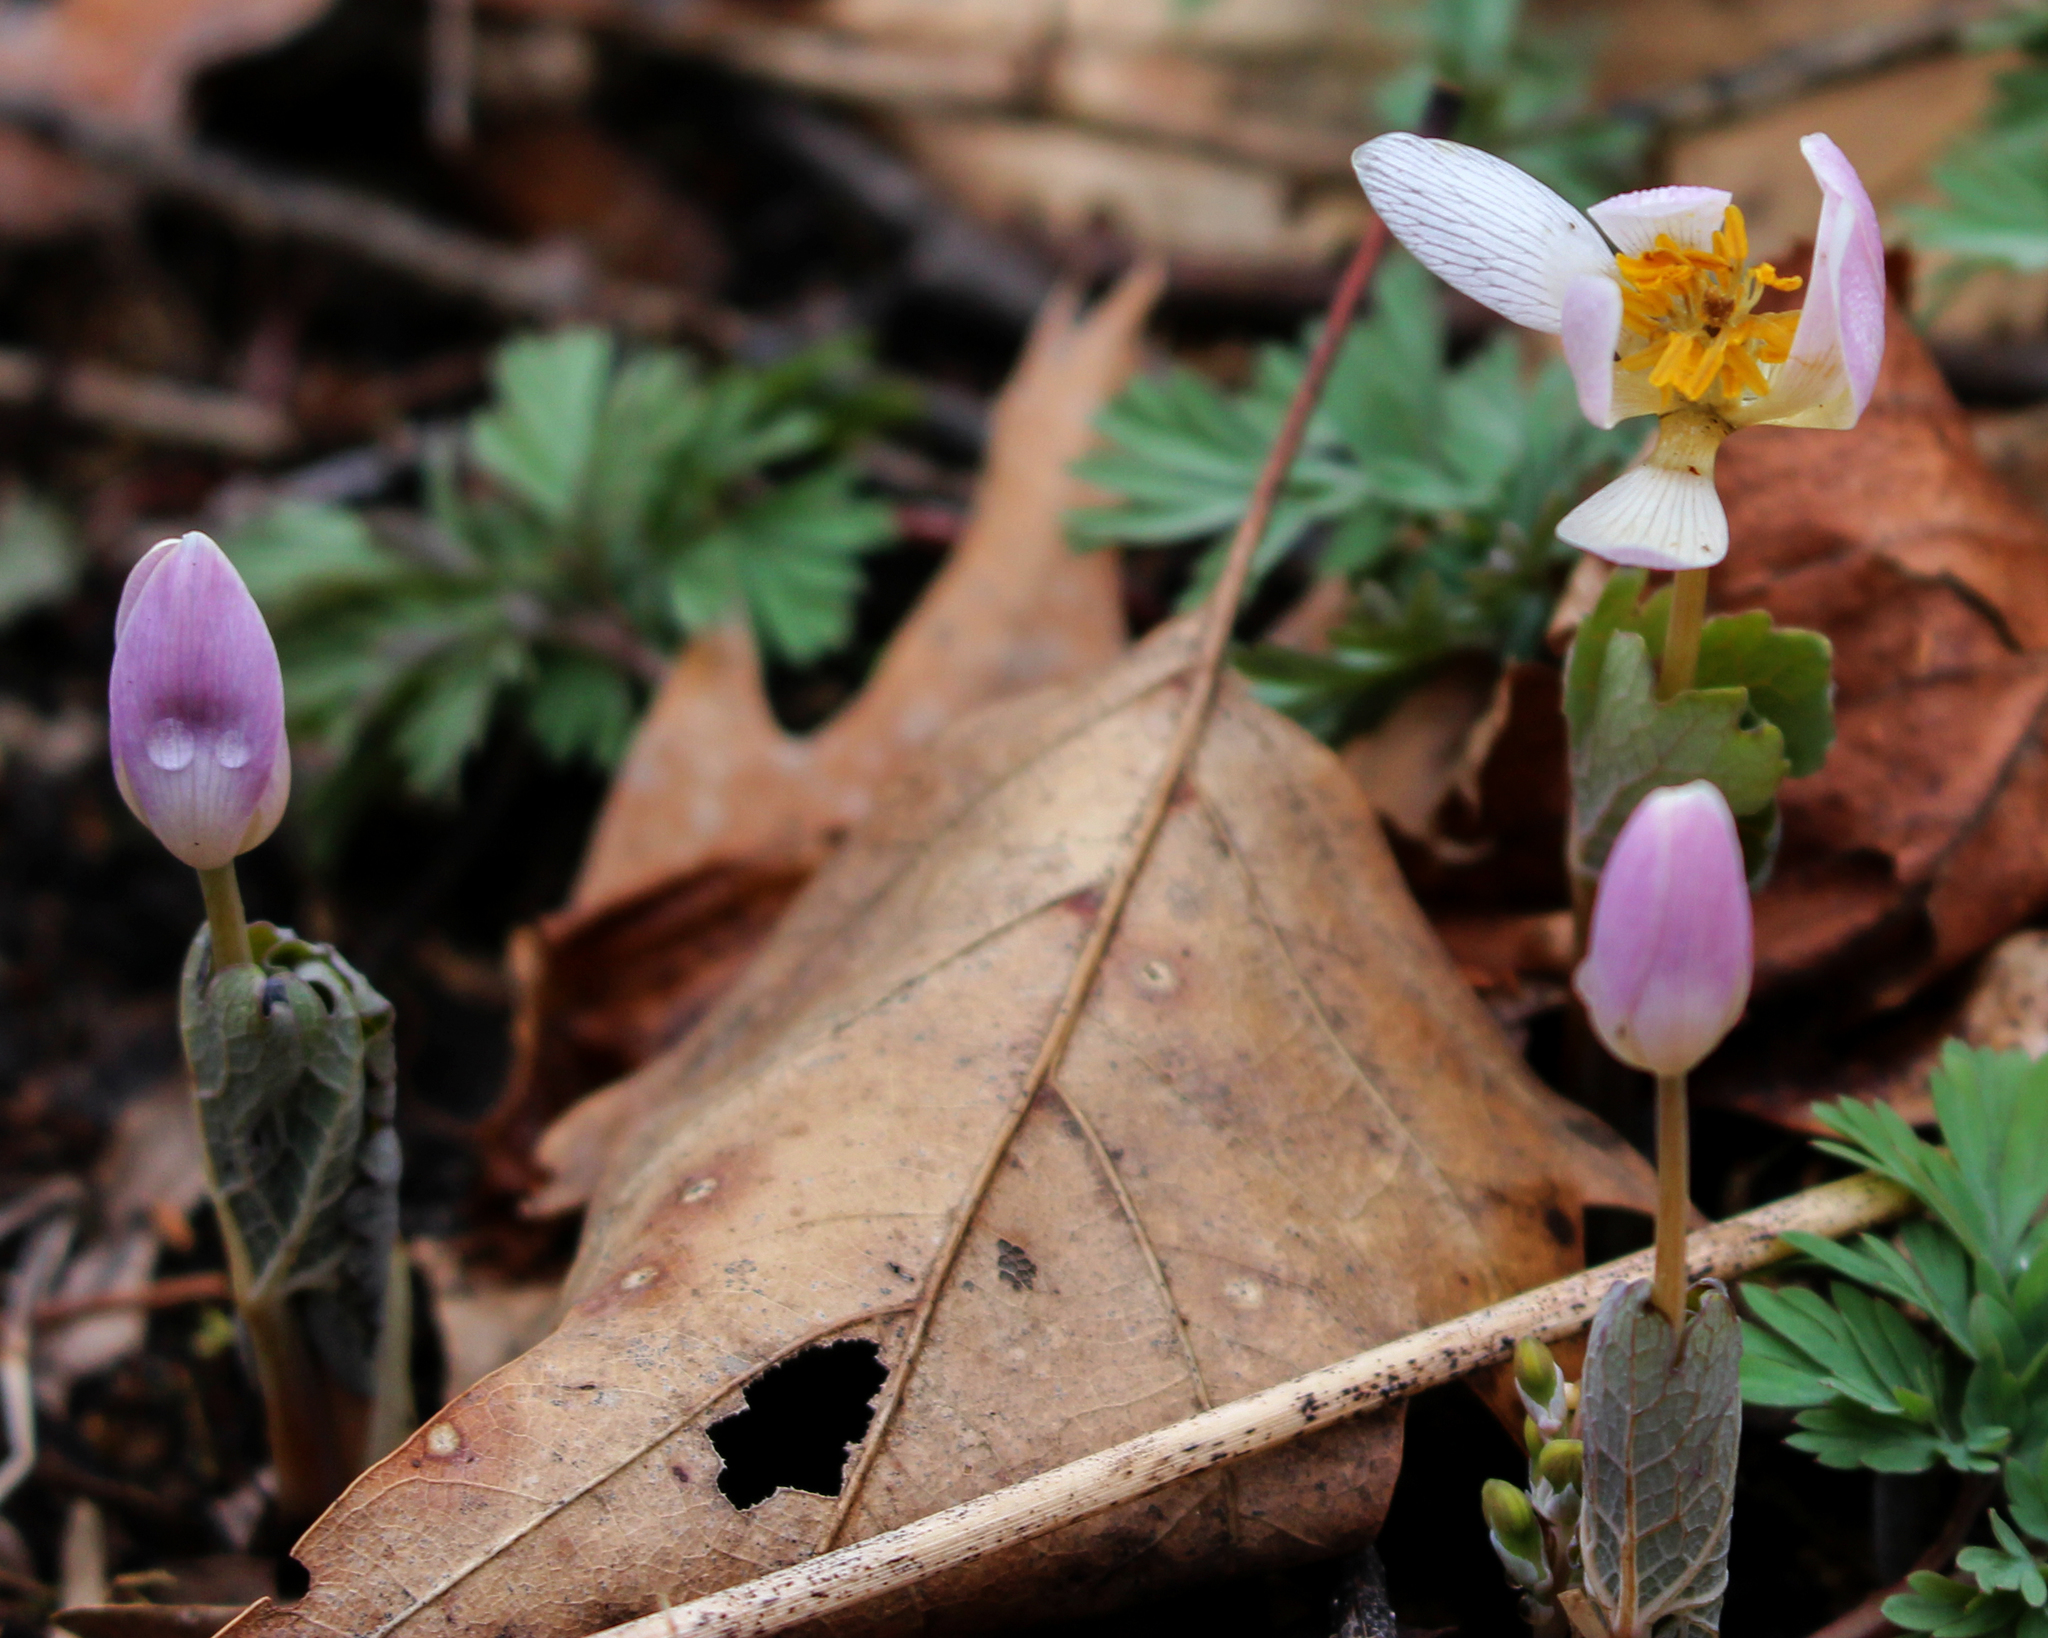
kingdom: Plantae
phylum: Tracheophyta
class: Magnoliopsida
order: Ranunculales
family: Papaveraceae
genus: Sanguinaria
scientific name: Sanguinaria canadensis
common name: Bloodroot
